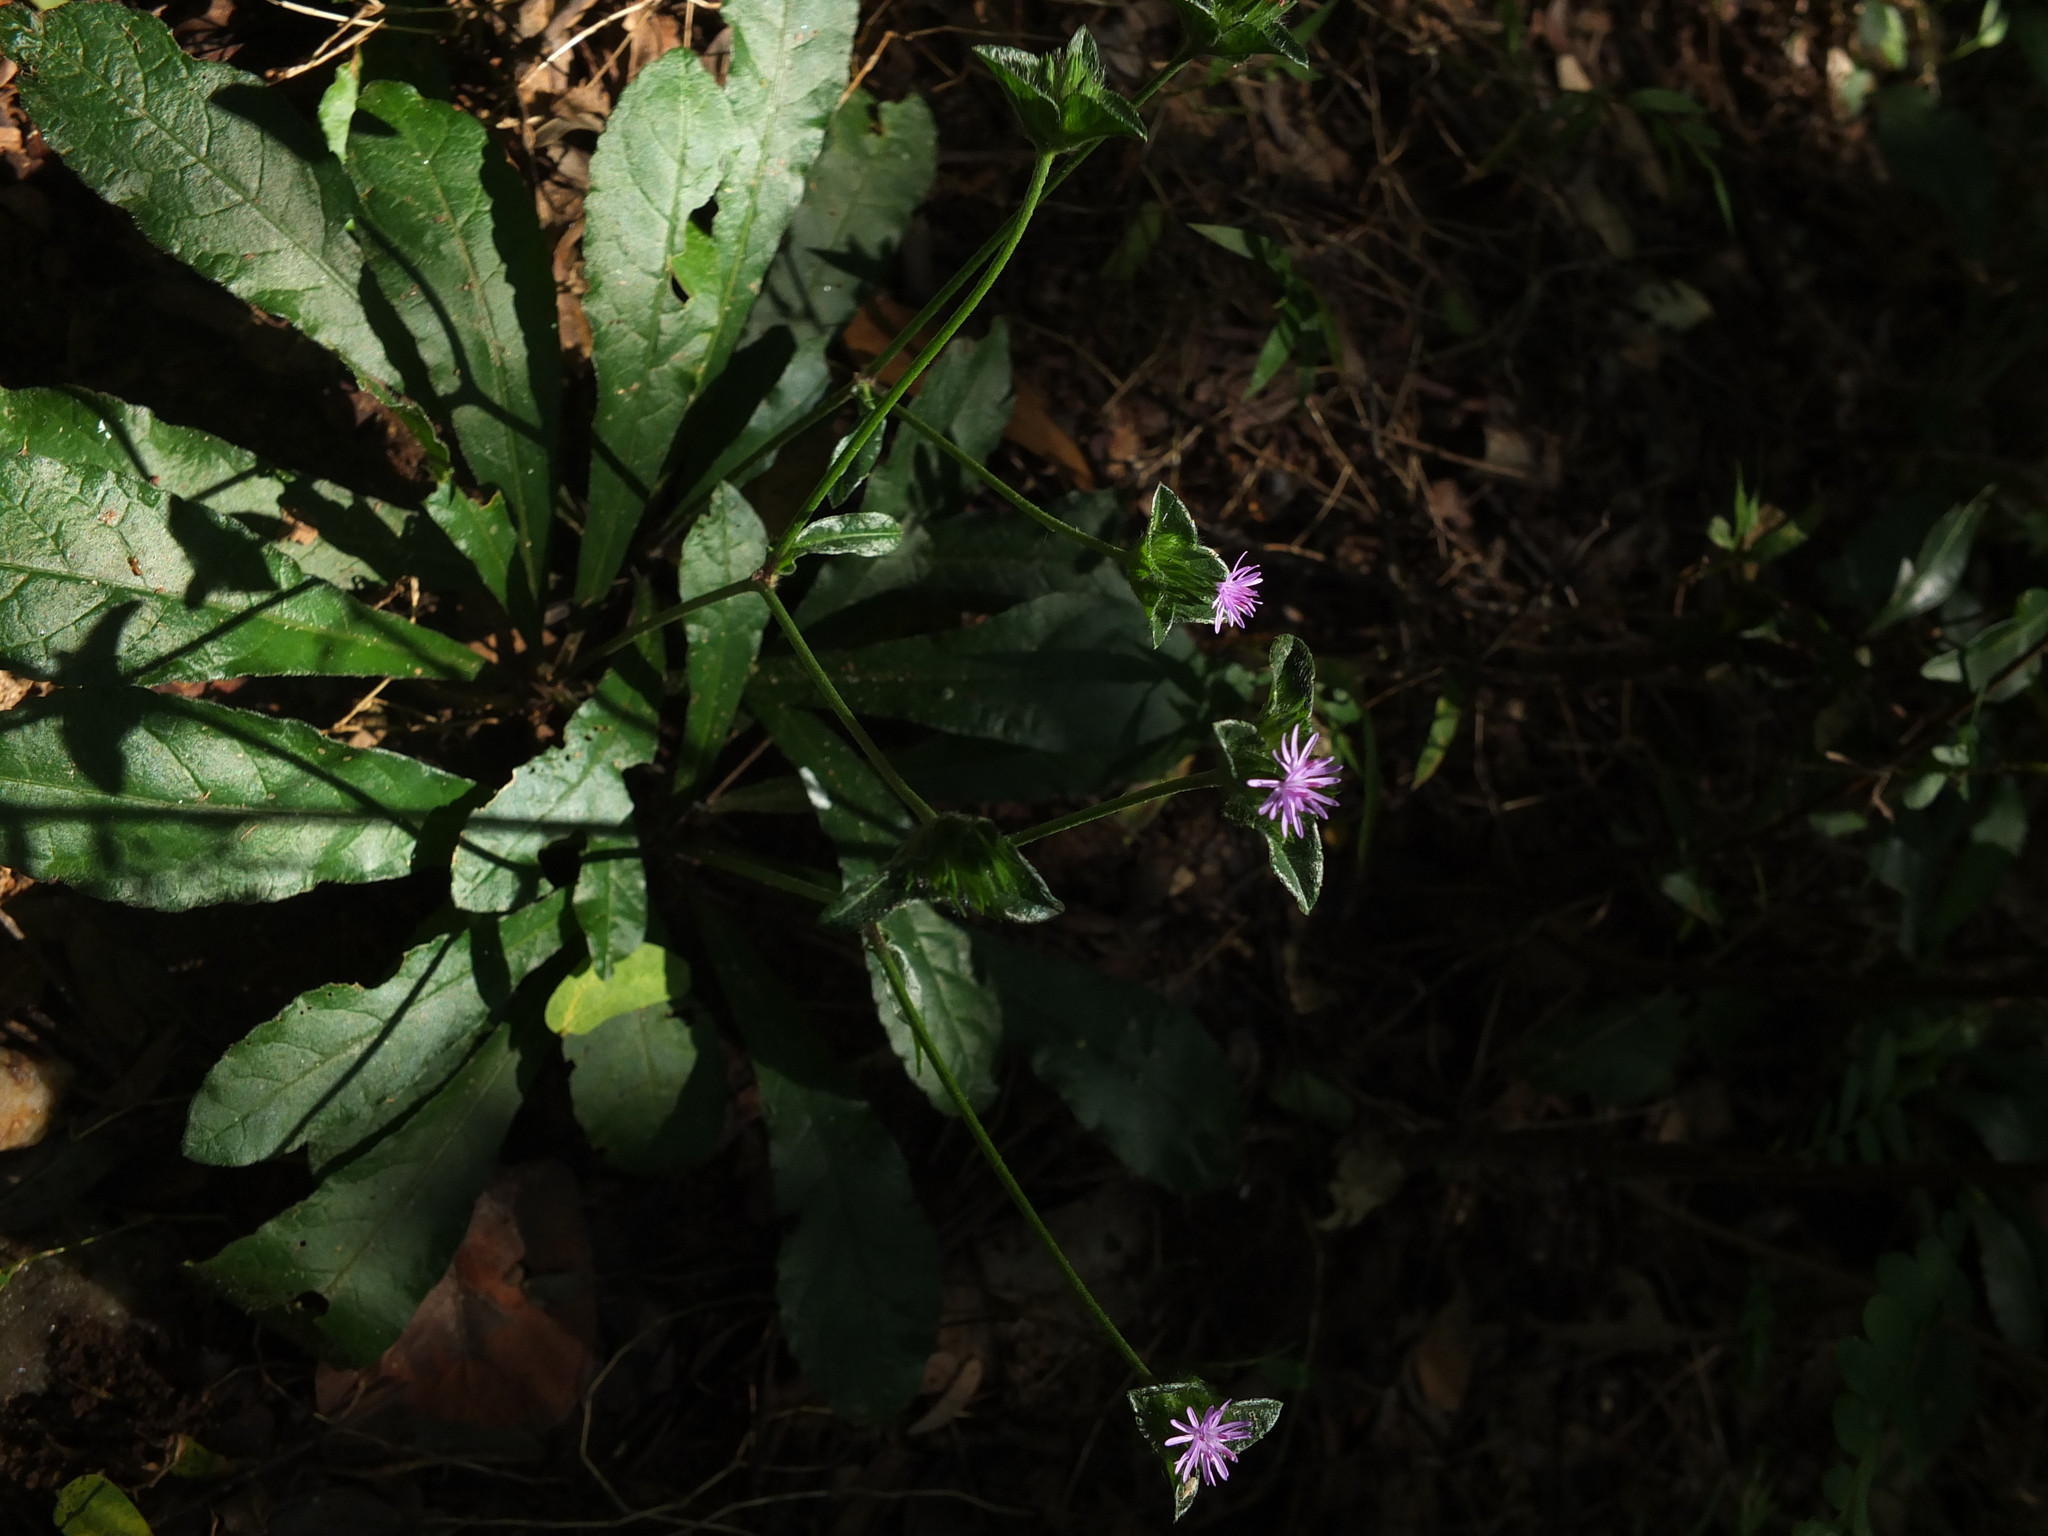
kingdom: Plantae
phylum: Tracheophyta
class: Magnoliopsida
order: Asterales
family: Asteraceae
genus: Elephantopus
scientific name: Elephantopus scaber
